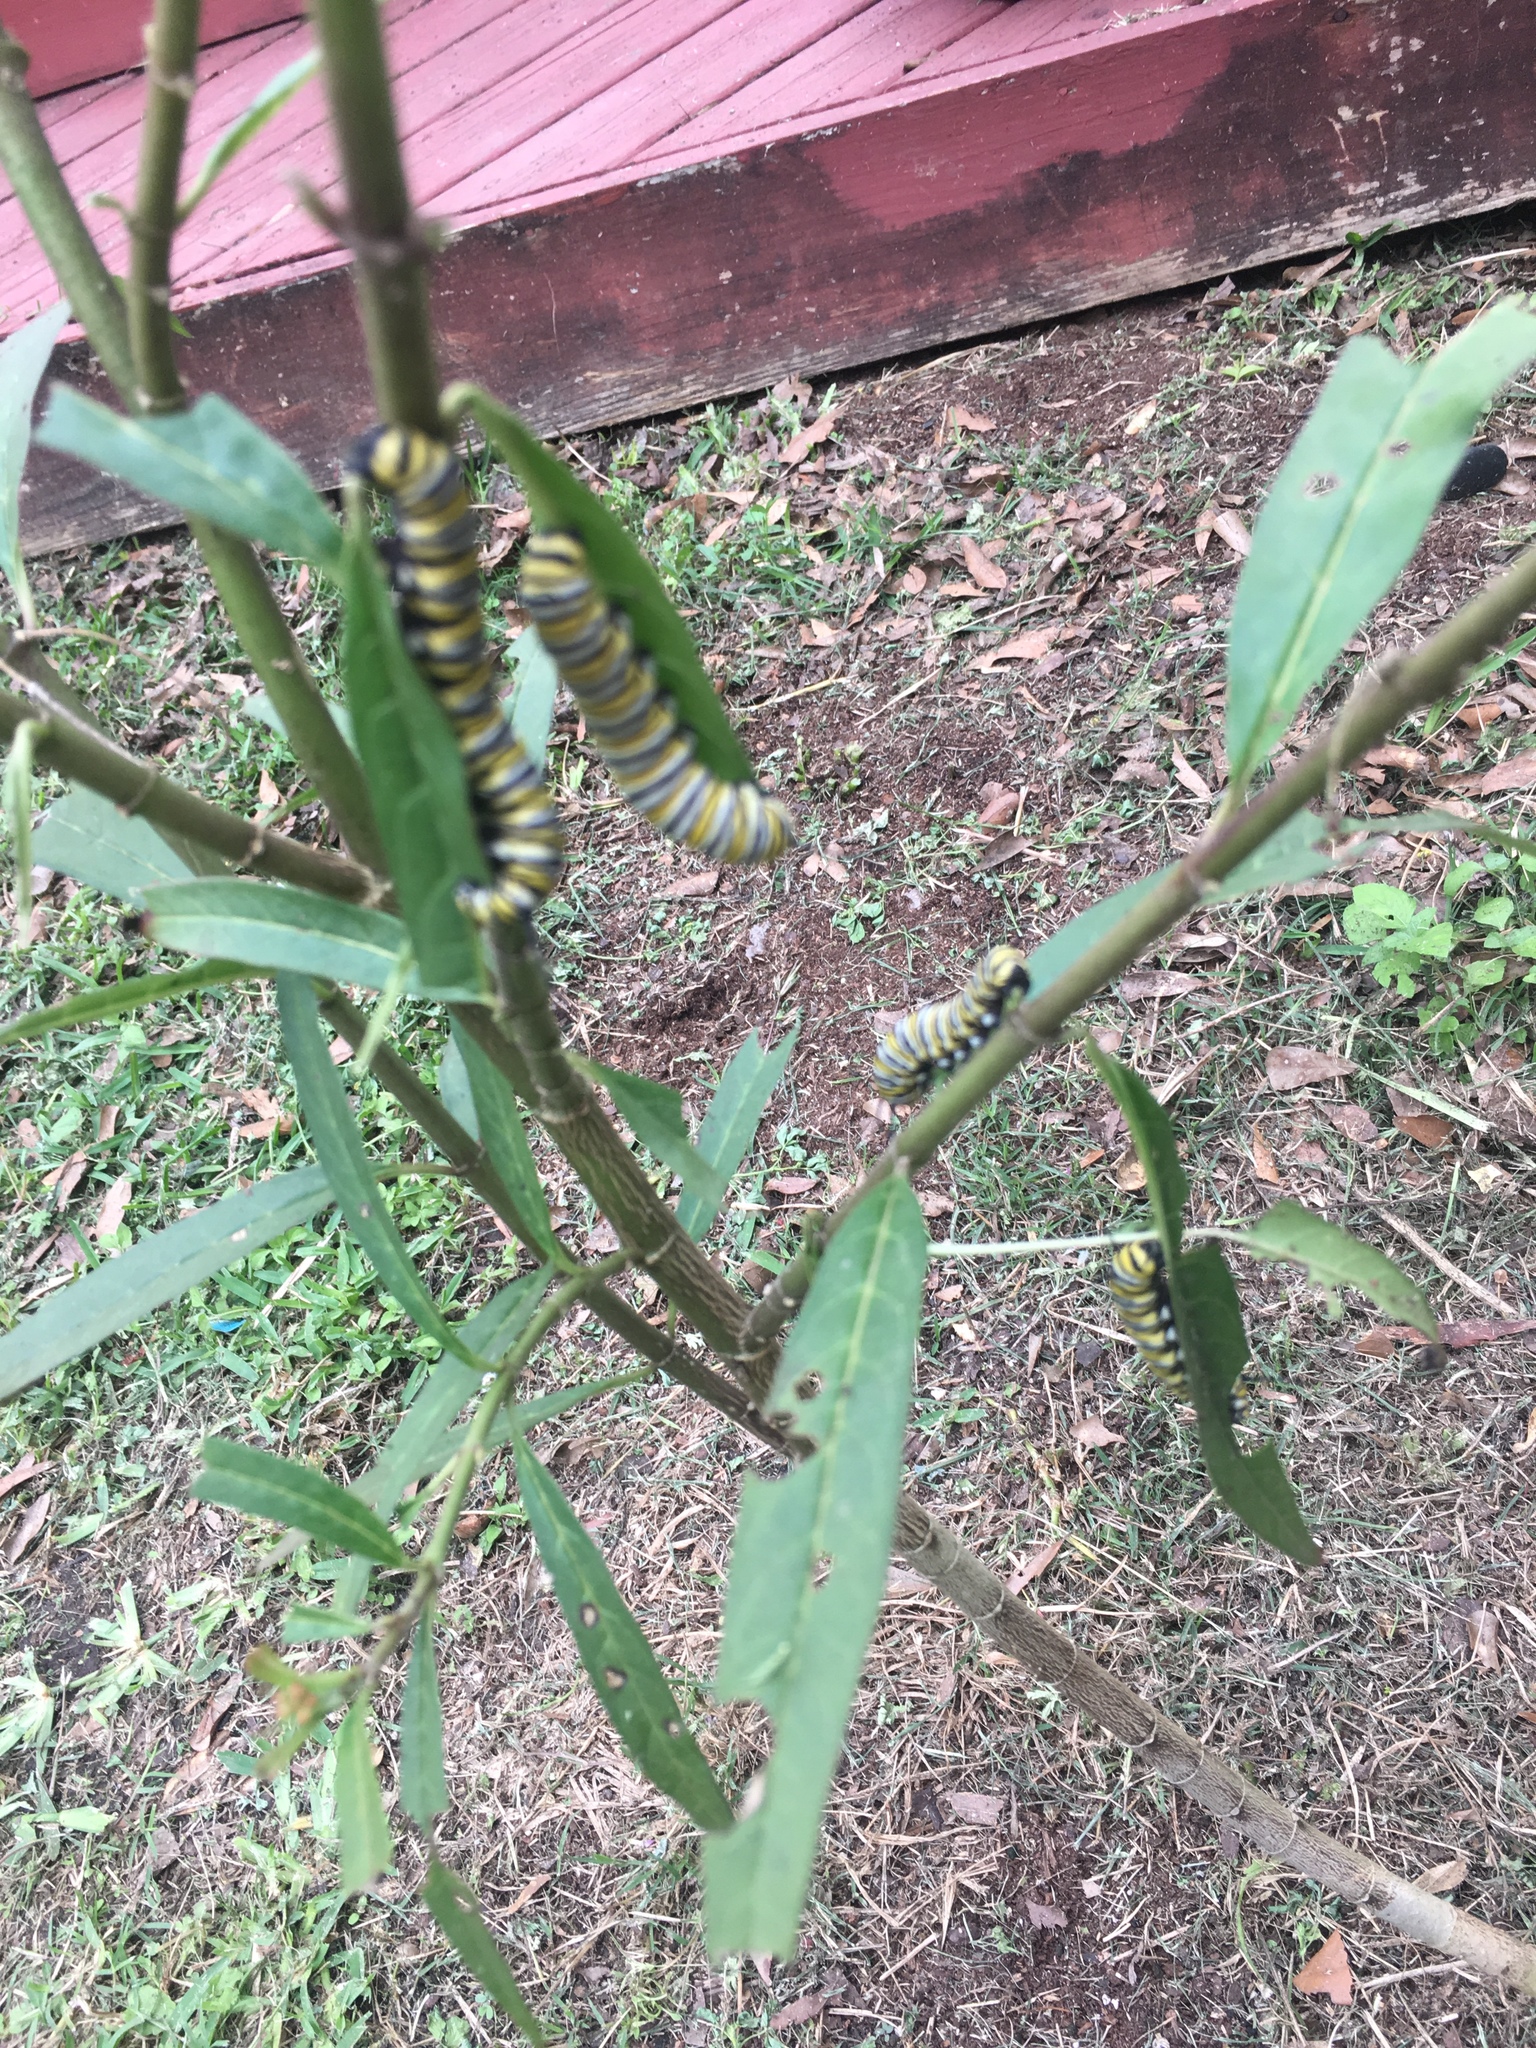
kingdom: Animalia
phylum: Arthropoda
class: Insecta
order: Lepidoptera
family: Nymphalidae
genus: Danaus
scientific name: Danaus plexippus
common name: Monarch
